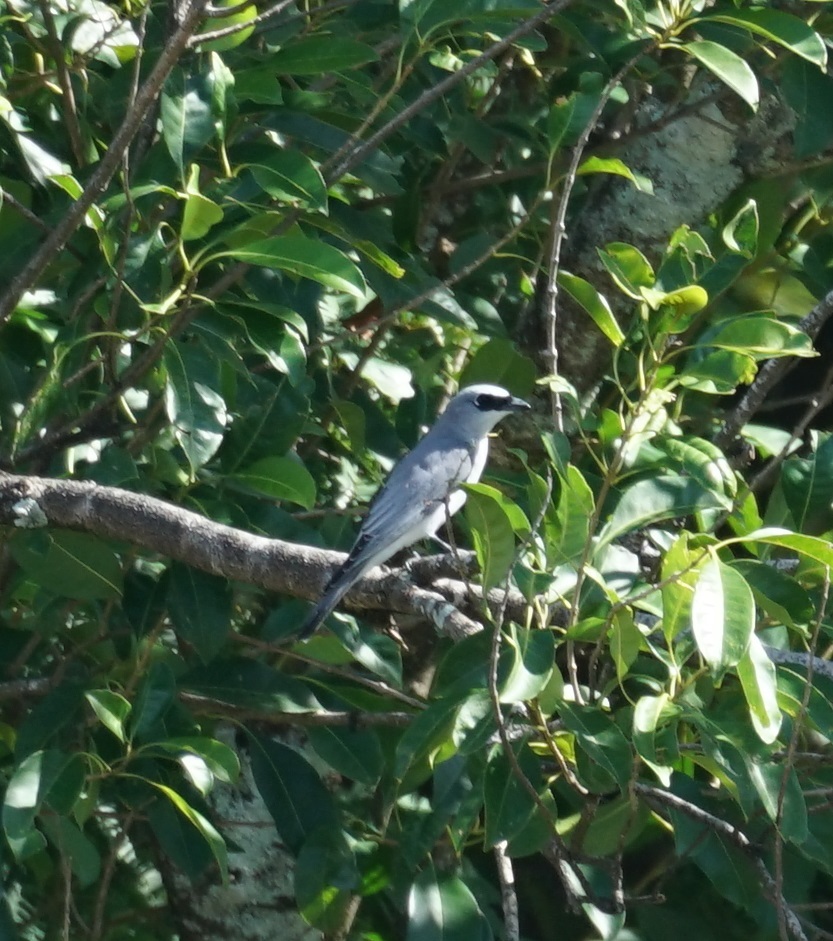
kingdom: Animalia
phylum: Chordata
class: Aves
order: Passeriformes
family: Campephagidae
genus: Coracina
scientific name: Coracina papuensis
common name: White-bellied cuckooshrike
